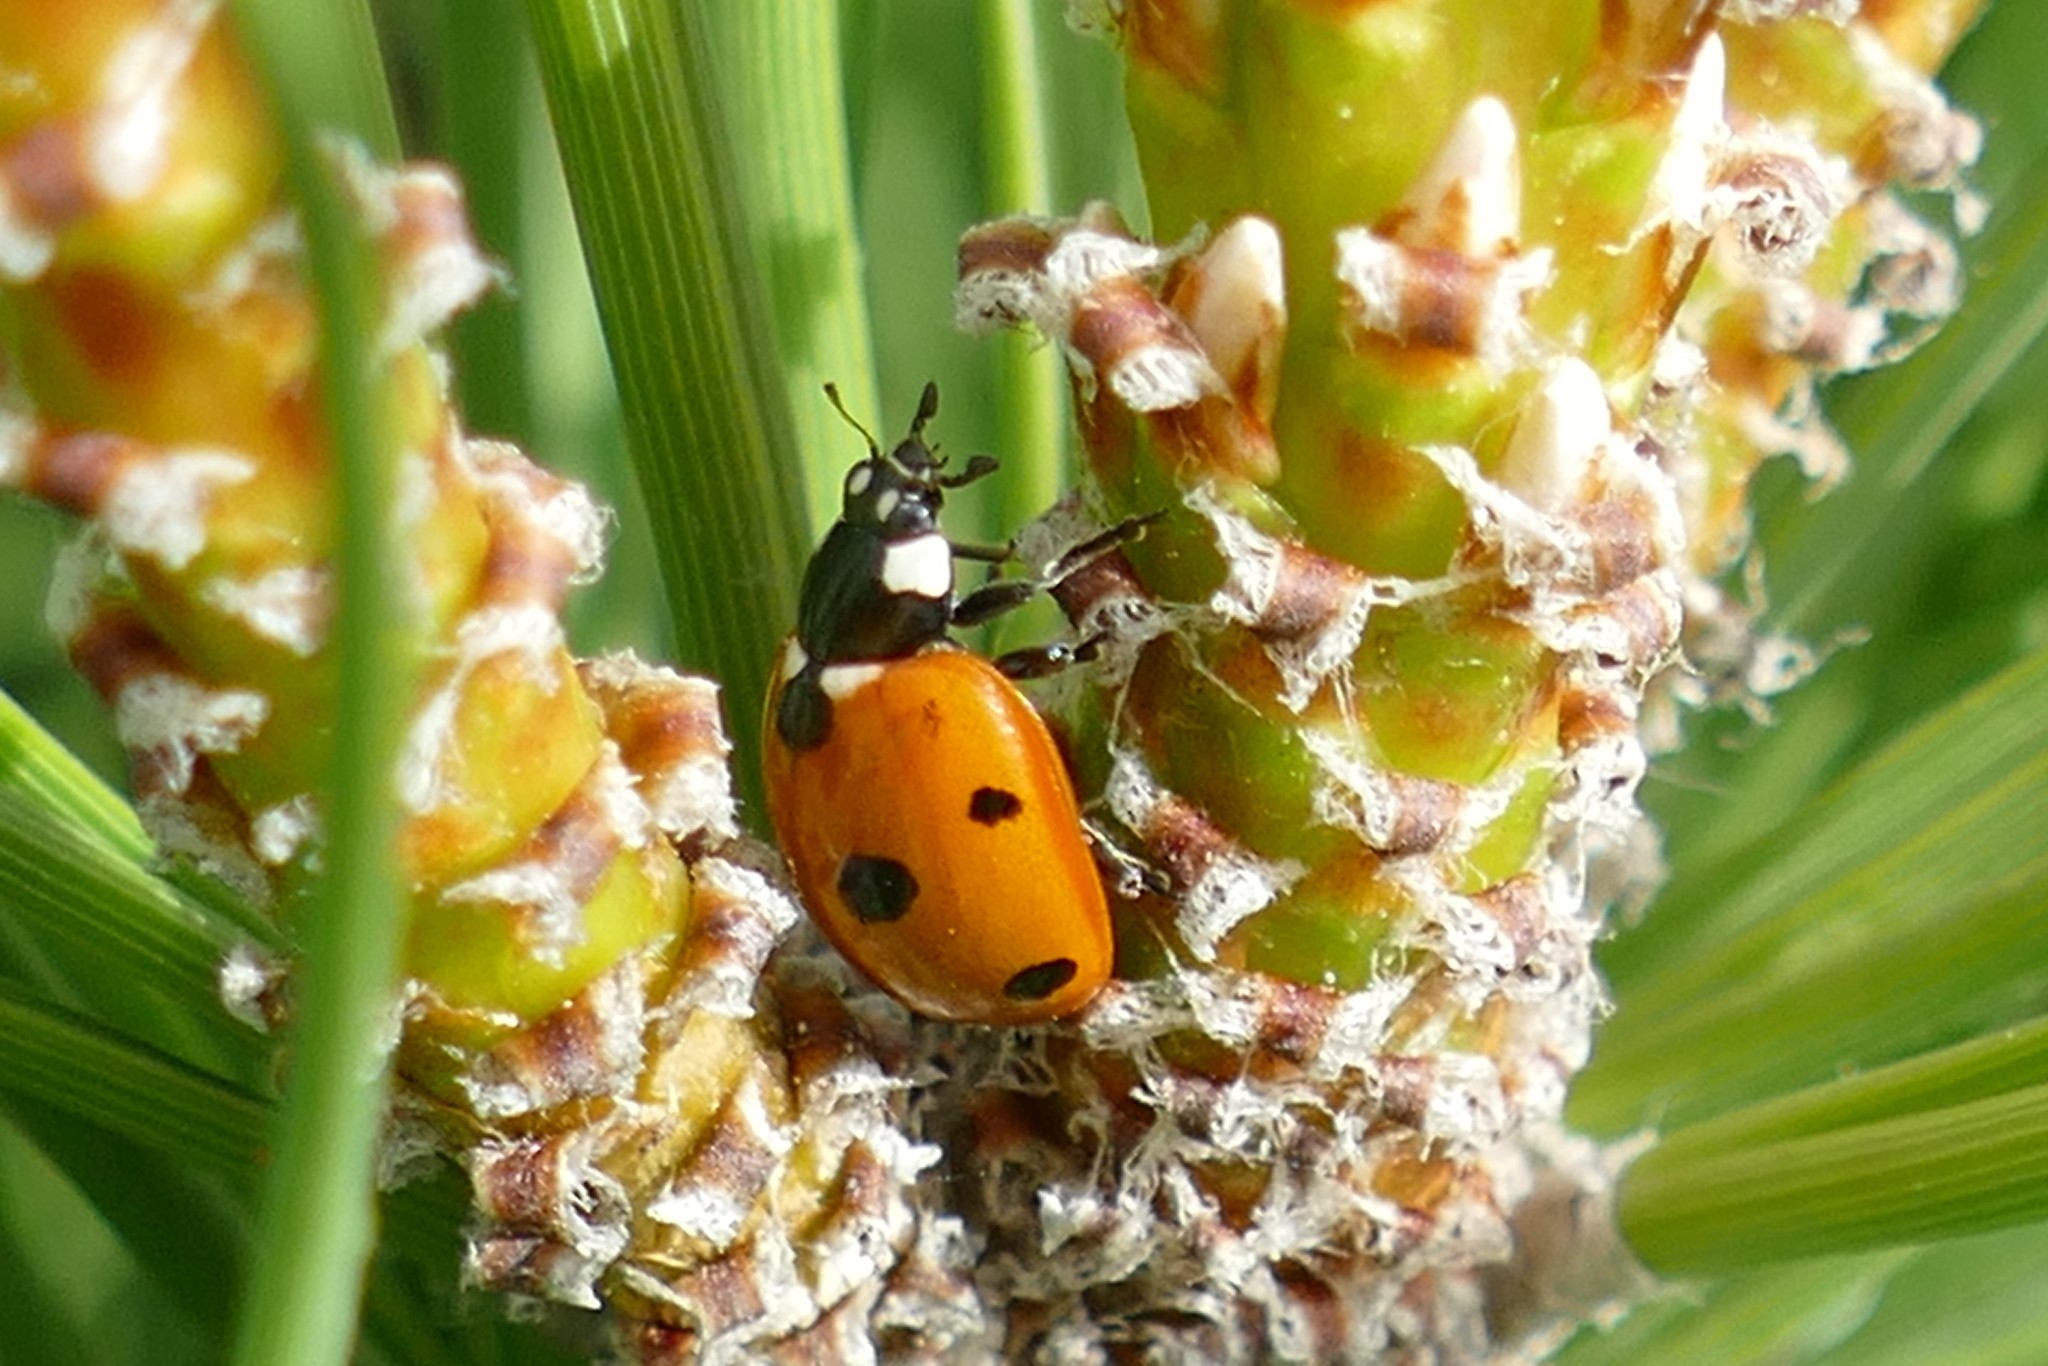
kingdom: Animalia
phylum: Arthropoda
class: Insecta
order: Coleoptera
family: Coccinellidae
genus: Coccinella
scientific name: Coccinella septempunctata
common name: Sevenspotted lady beetle
